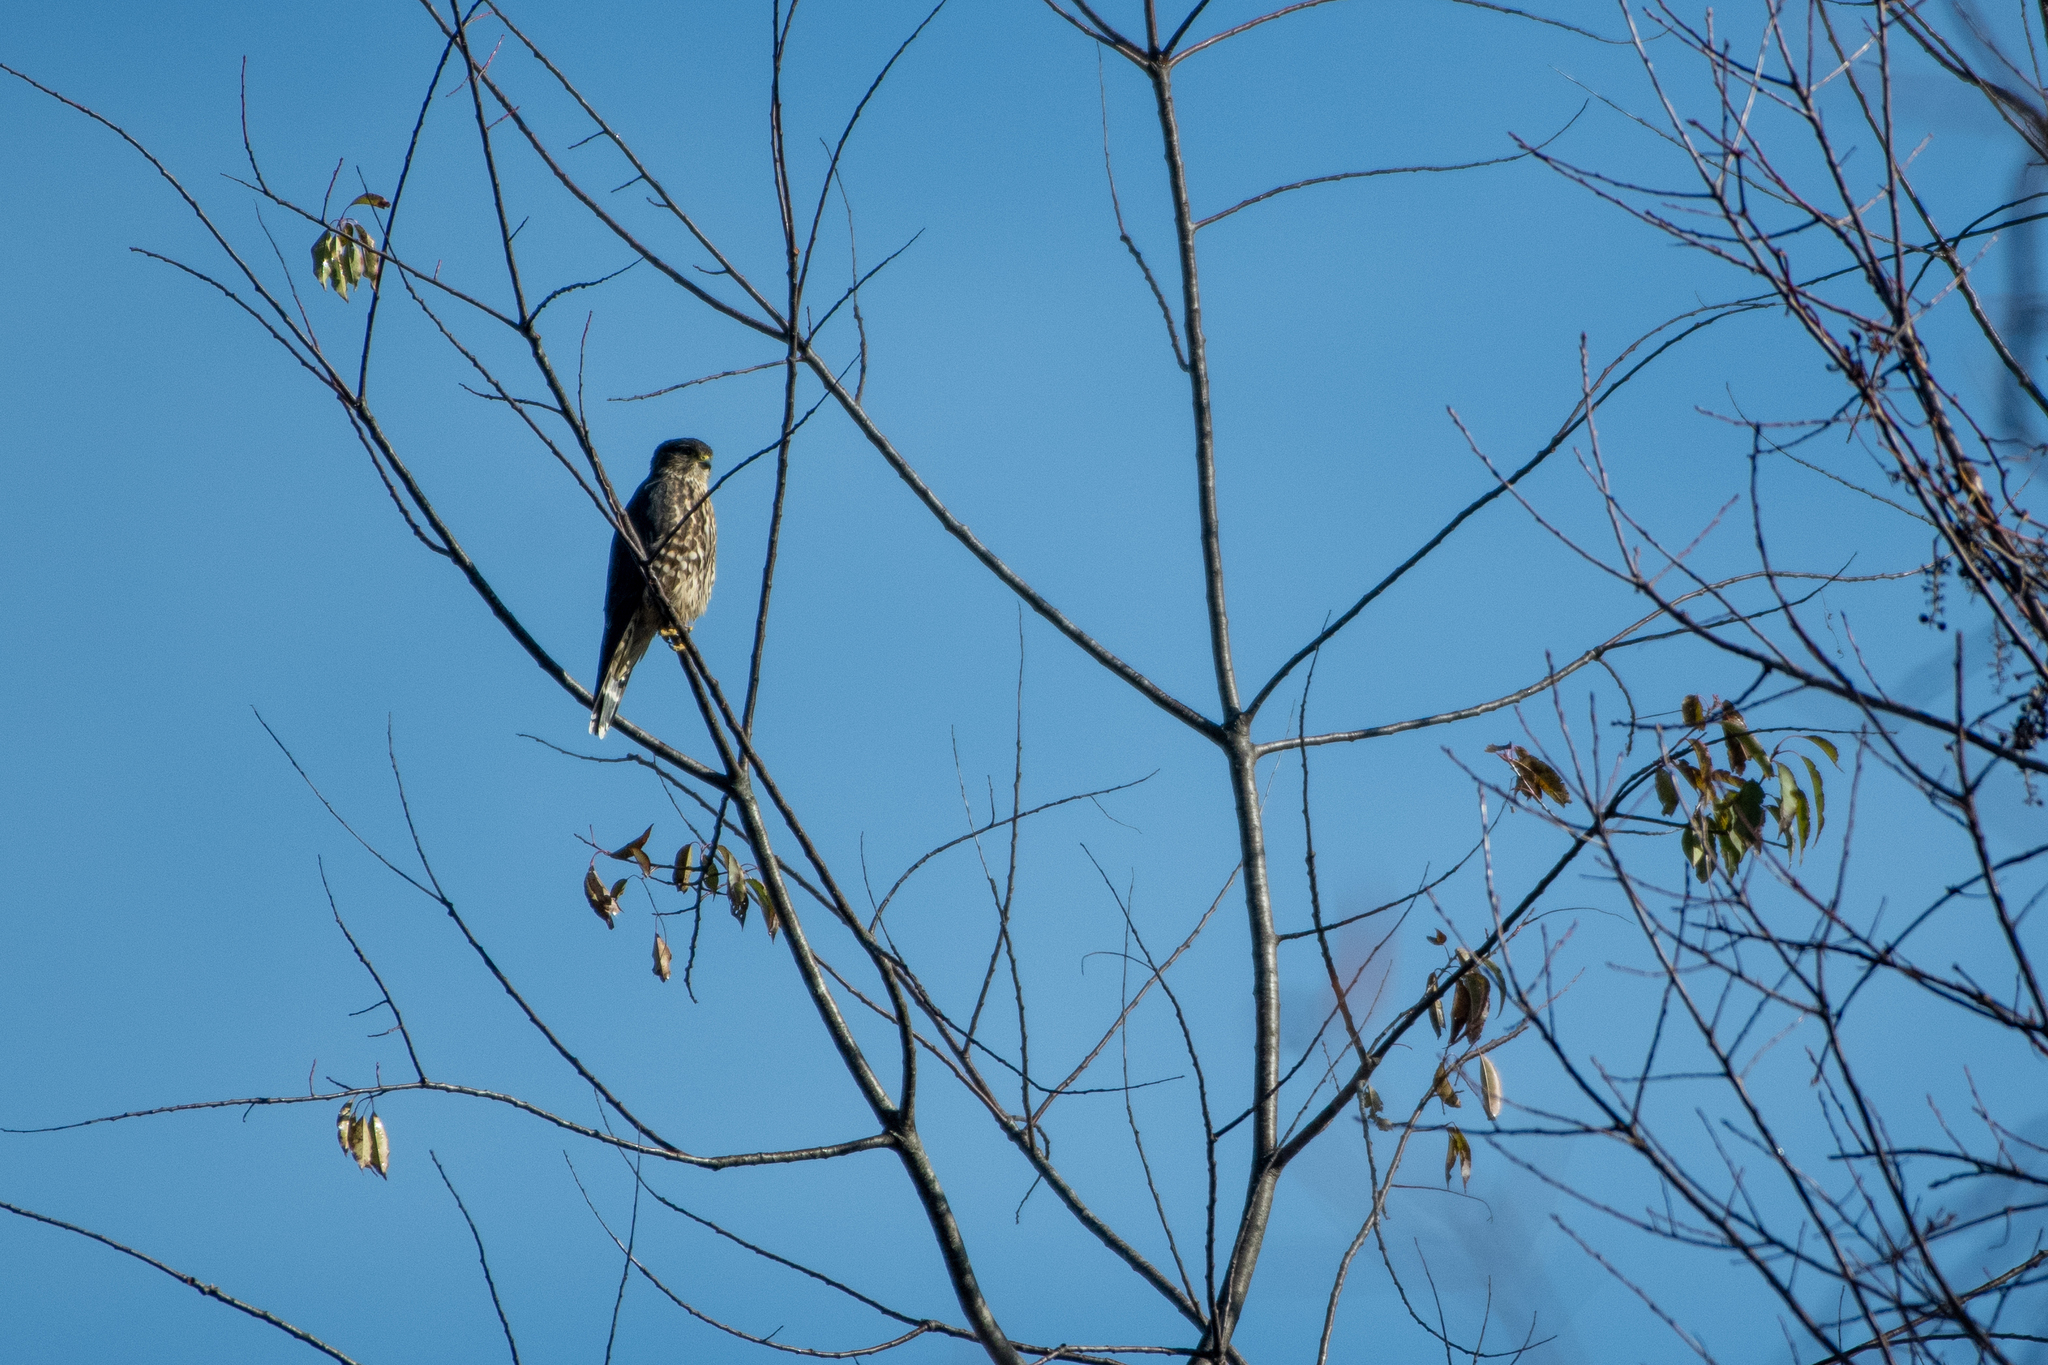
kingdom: Animalia
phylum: Chordata
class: Aves
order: Falconiformes
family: Falconidae
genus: Falco
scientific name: Falco columbarius
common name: Merlin
